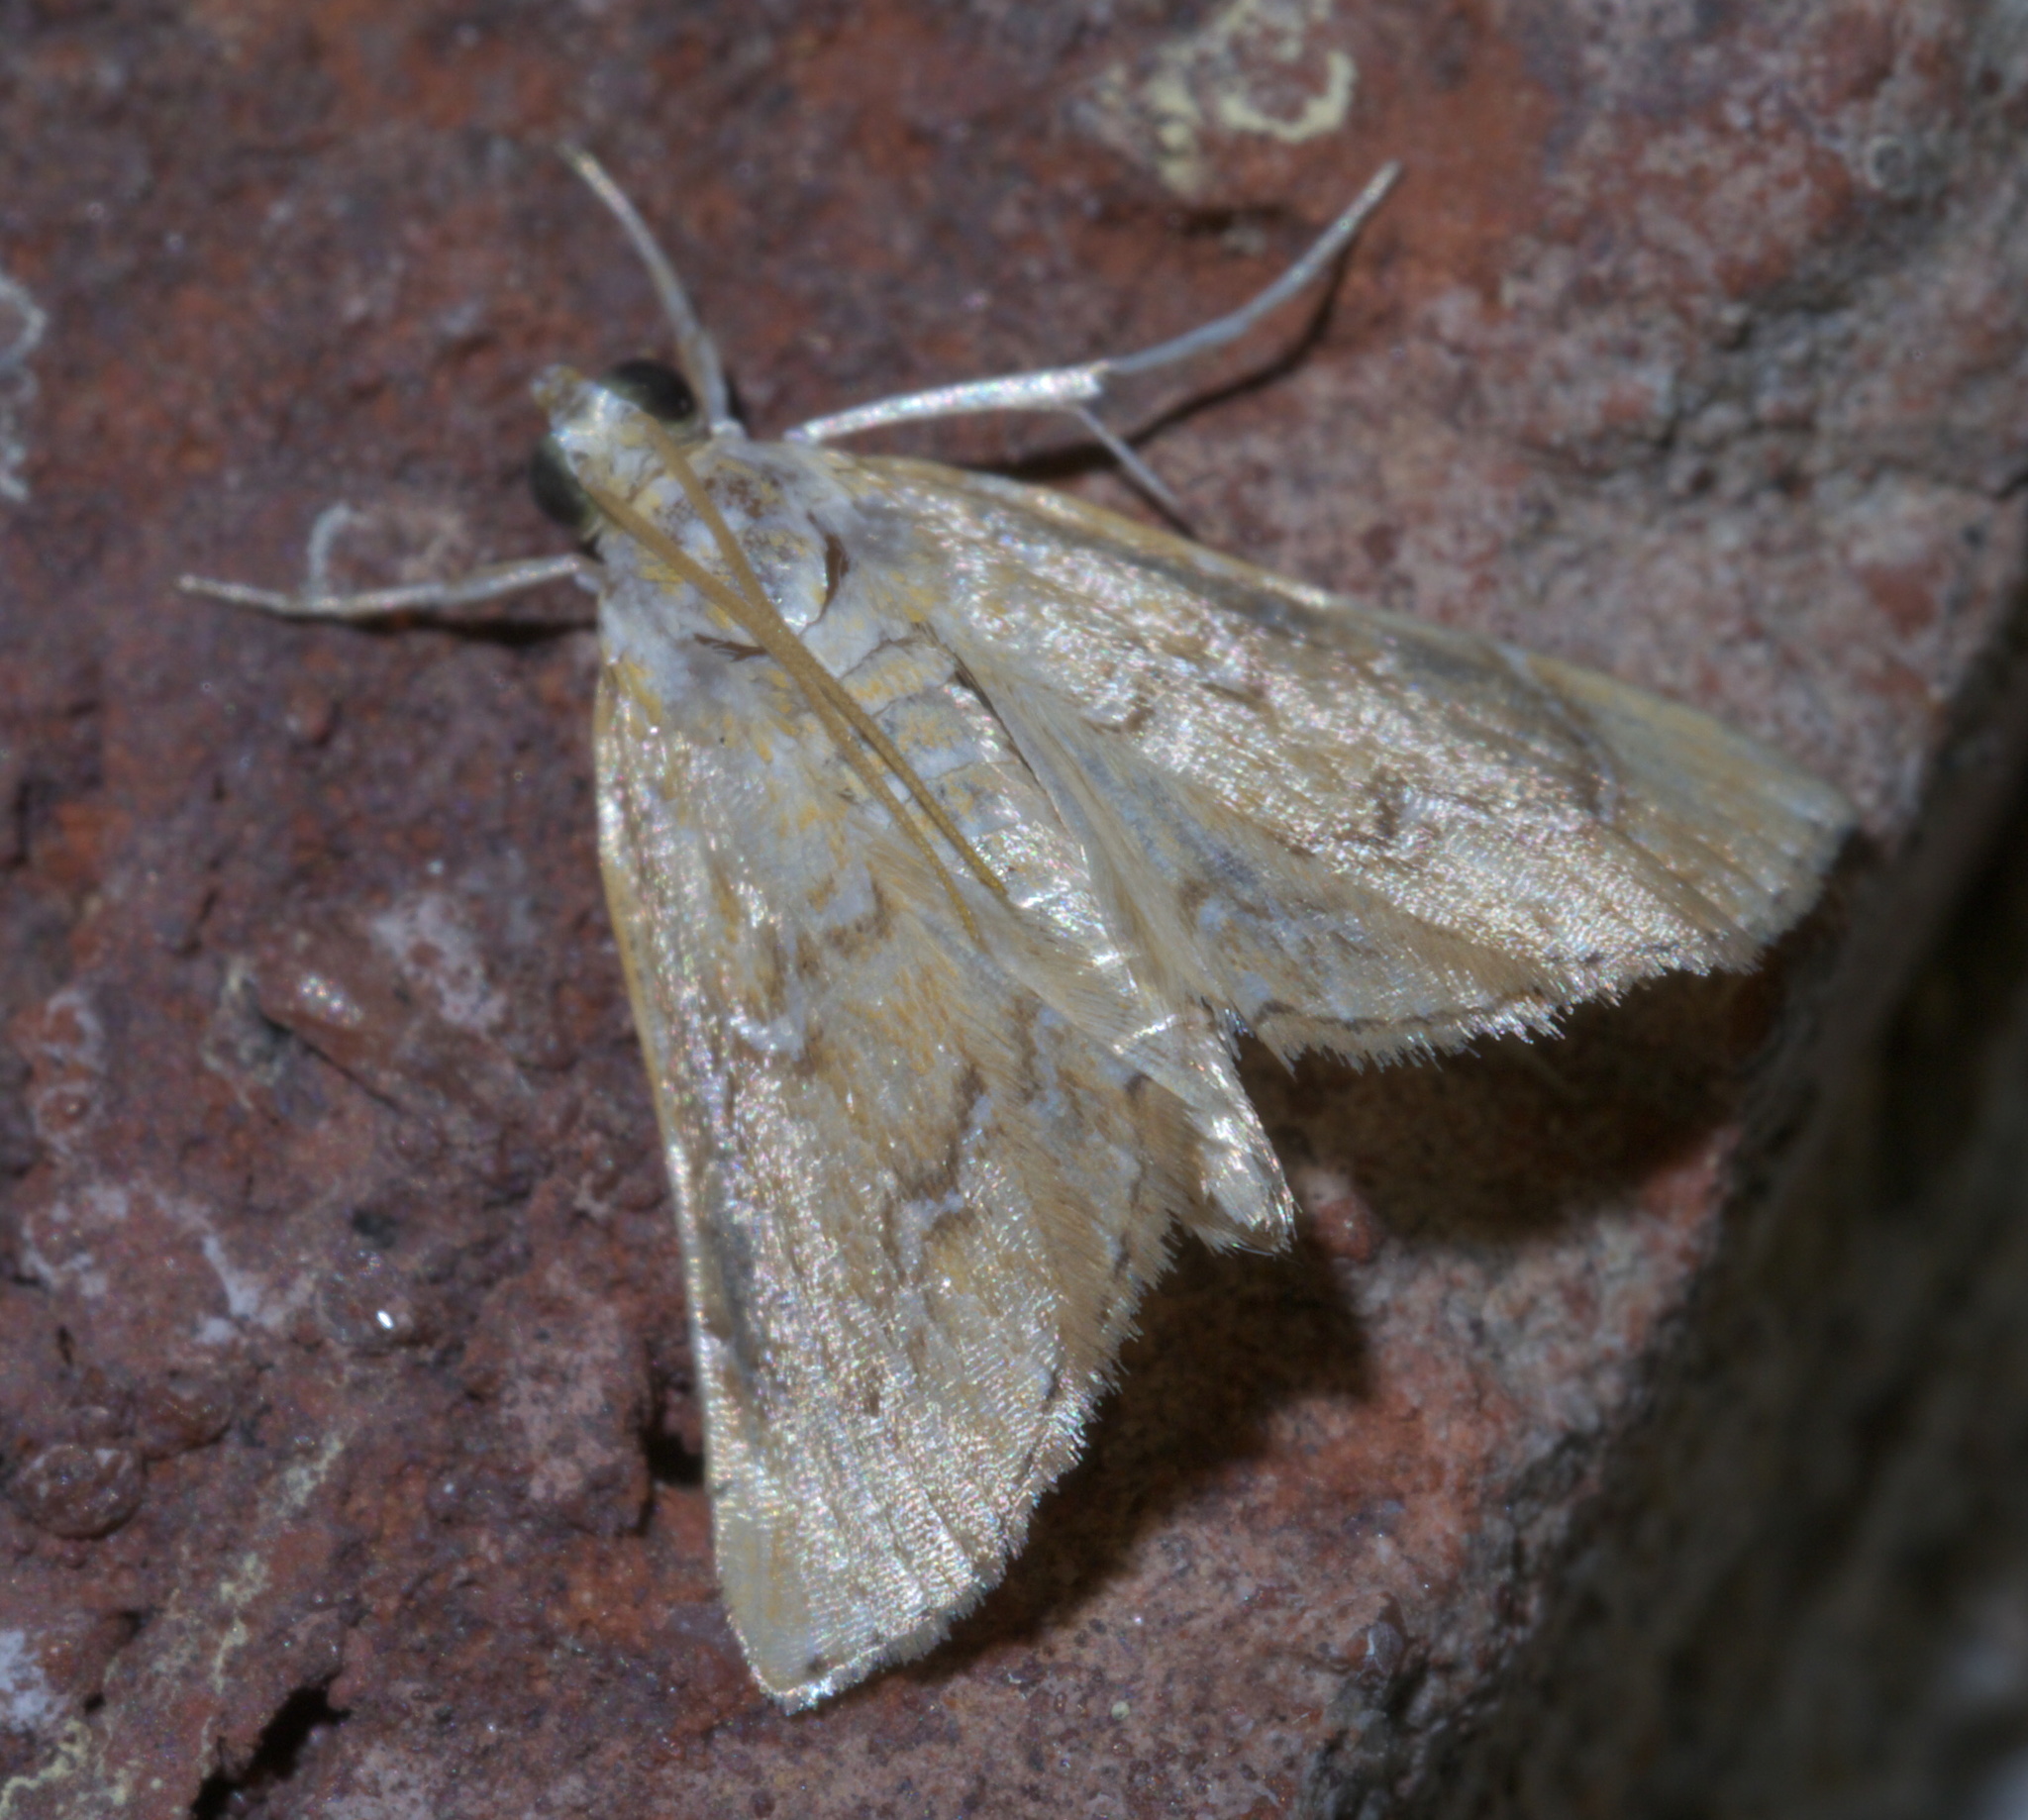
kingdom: Animalia
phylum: Arthropoda
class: Insecta
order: Lepidoptera
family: Crambidae
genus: Glaphyria
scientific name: Glaphyria sesquistrialis
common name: White-roped glaphyria
